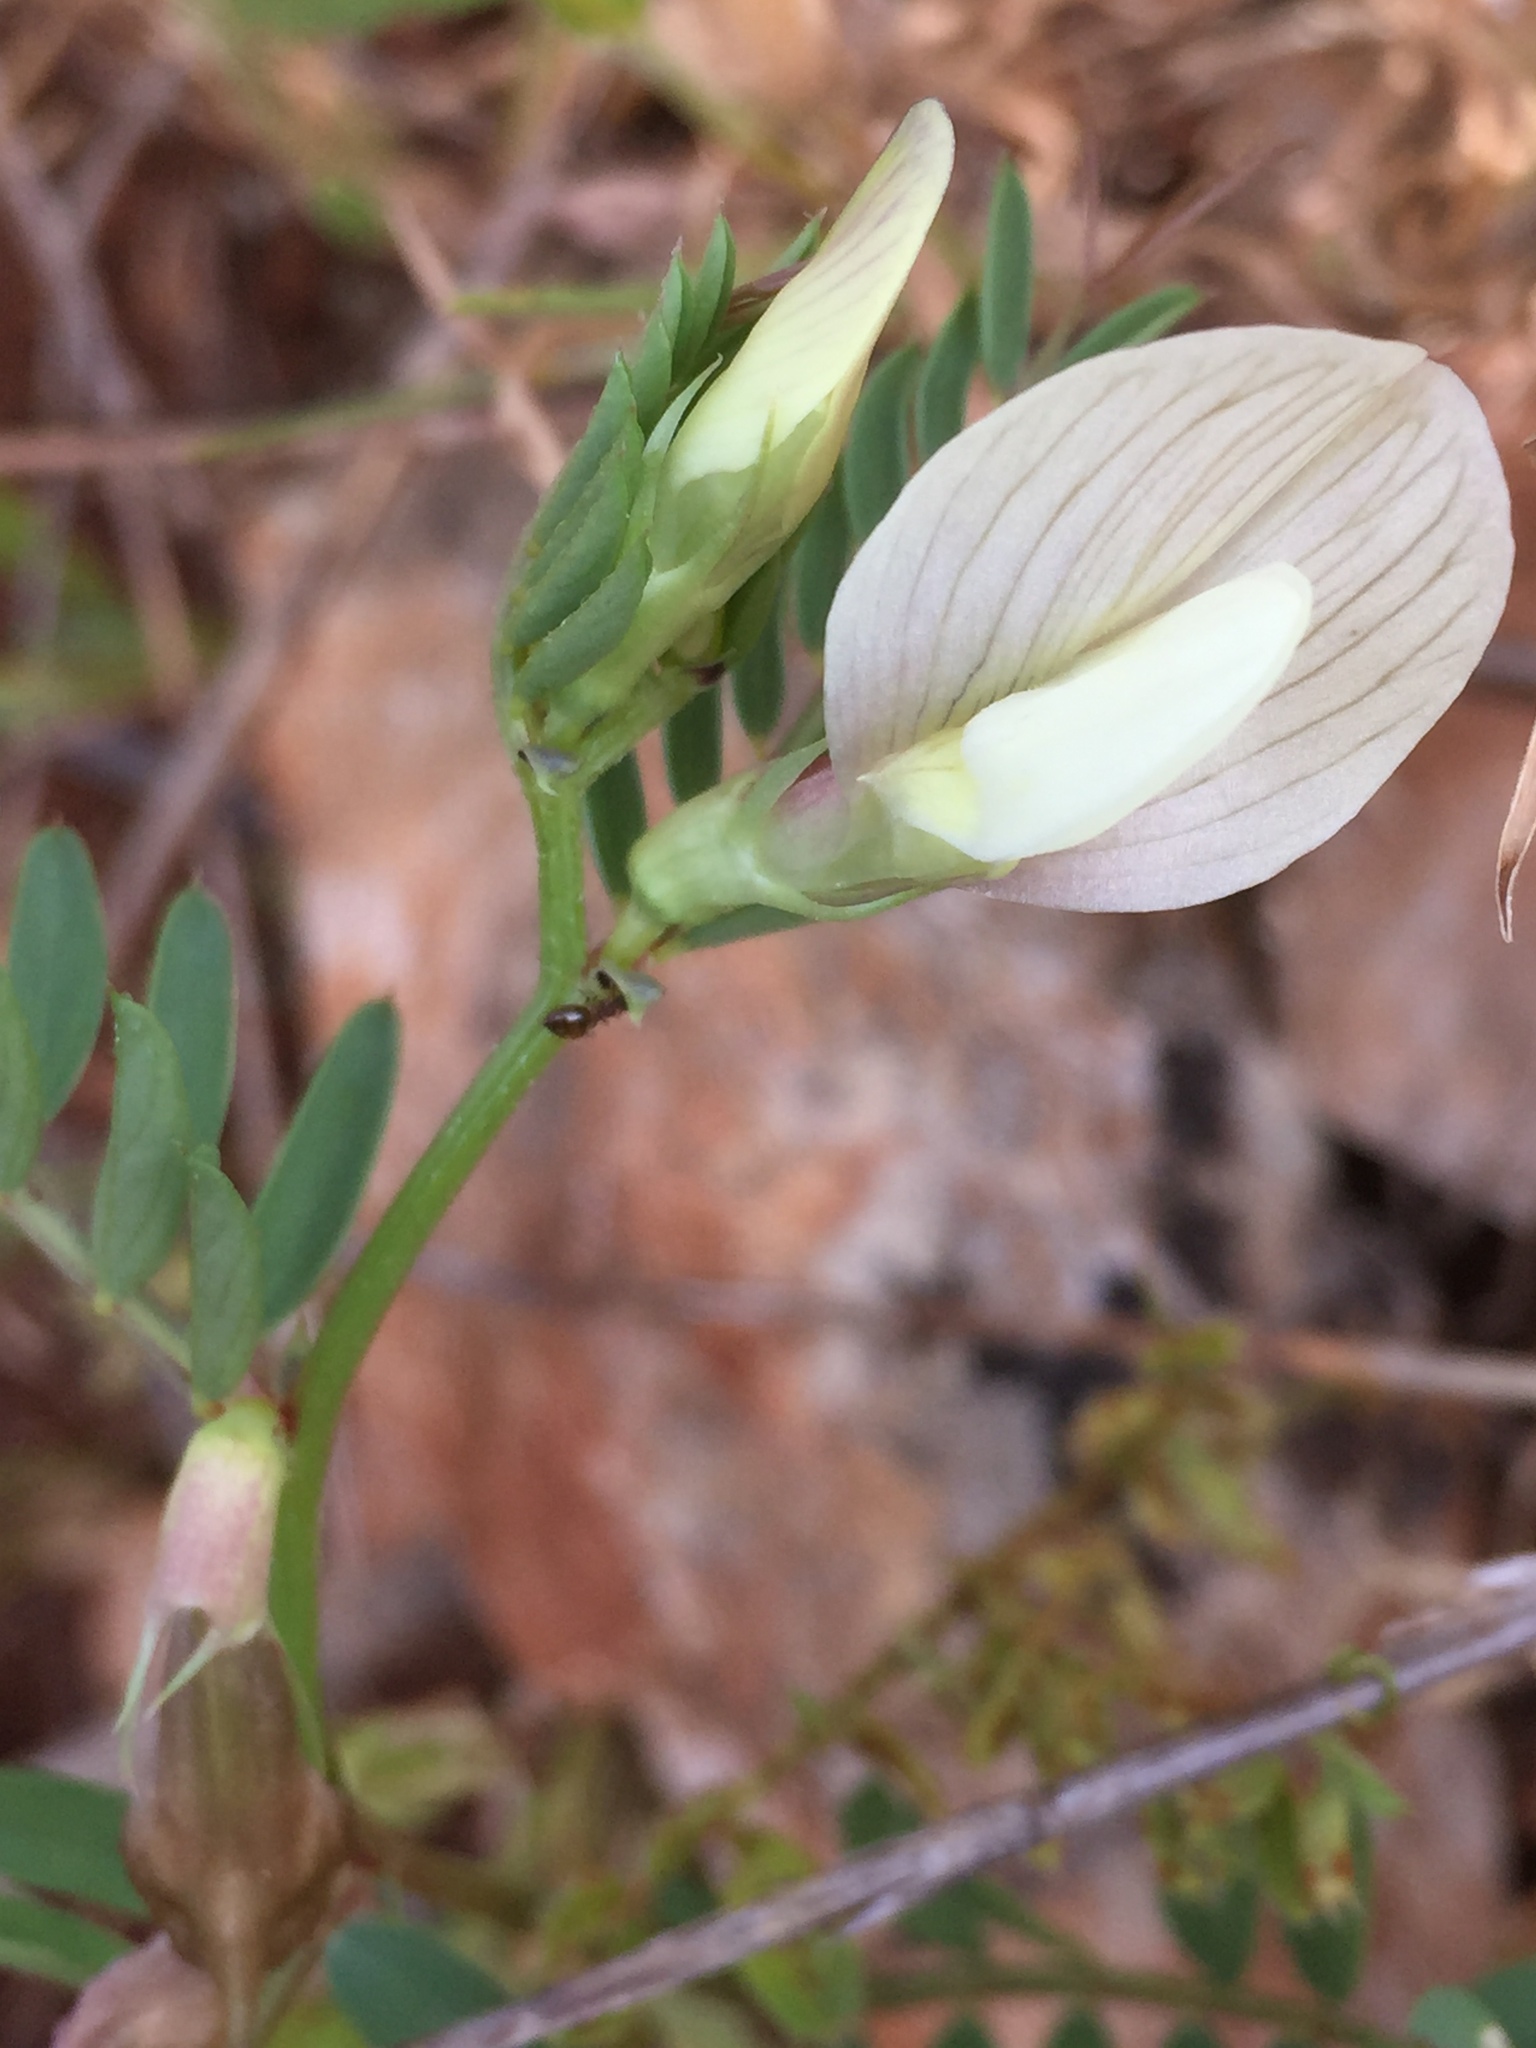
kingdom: Plantae
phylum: Tracheophyta
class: Magnoliopsida
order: Fabales
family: Fabaceae
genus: Vicia
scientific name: Vicia lutea
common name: Smooth yellow vetch
